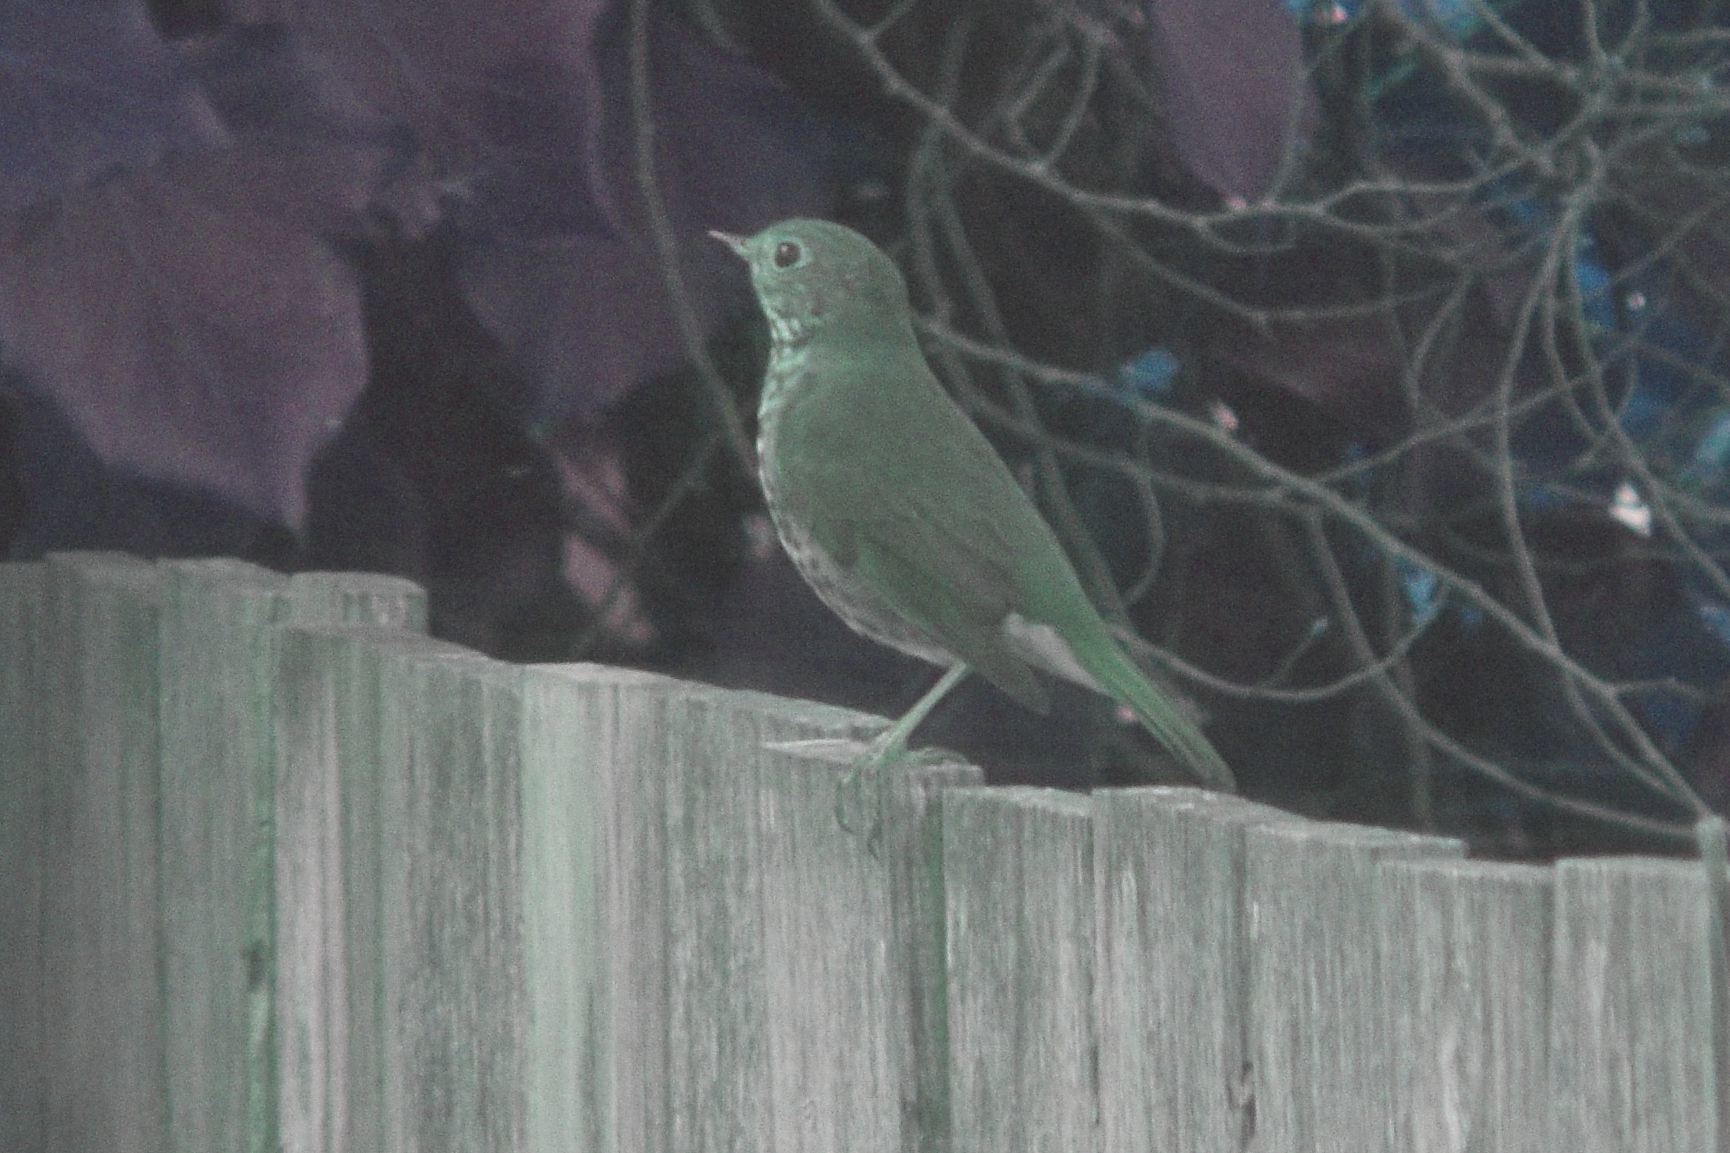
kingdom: Animalia
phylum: Chordata
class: Aves
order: Passeriformes
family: Turdidae
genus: Catharus
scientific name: Catharus guttatus
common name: Hermit thrush
